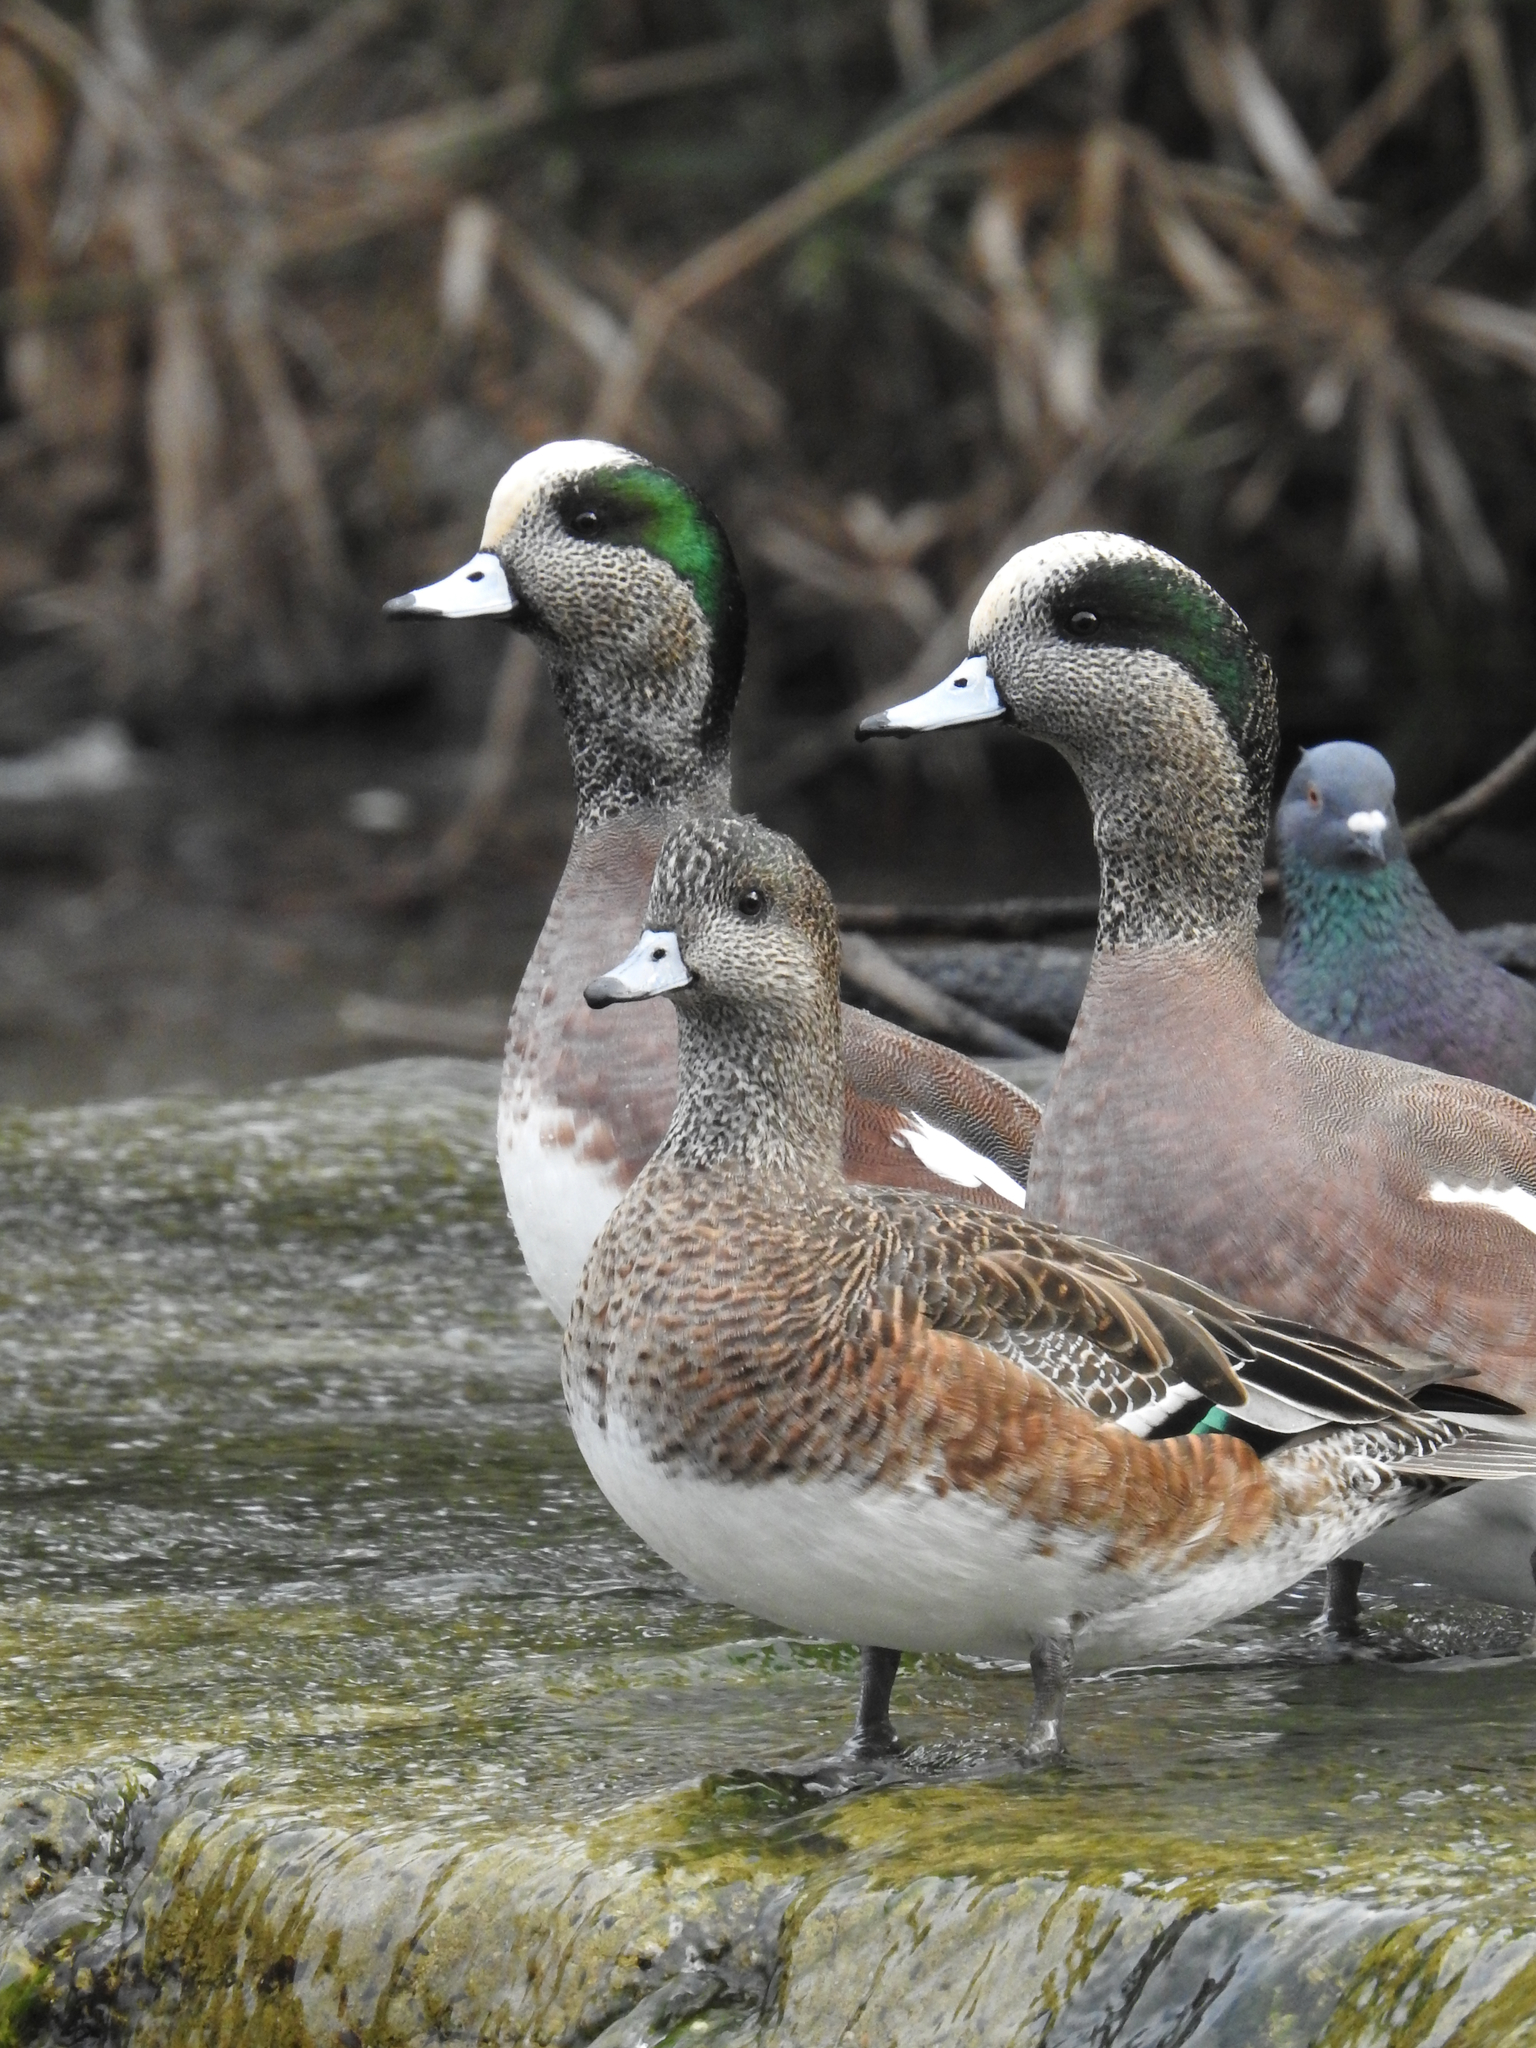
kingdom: Animalia
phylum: Chordata
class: Aves
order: Anseriformes
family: Anatidae
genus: Mareca
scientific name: Mareca americana
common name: American wigeon
